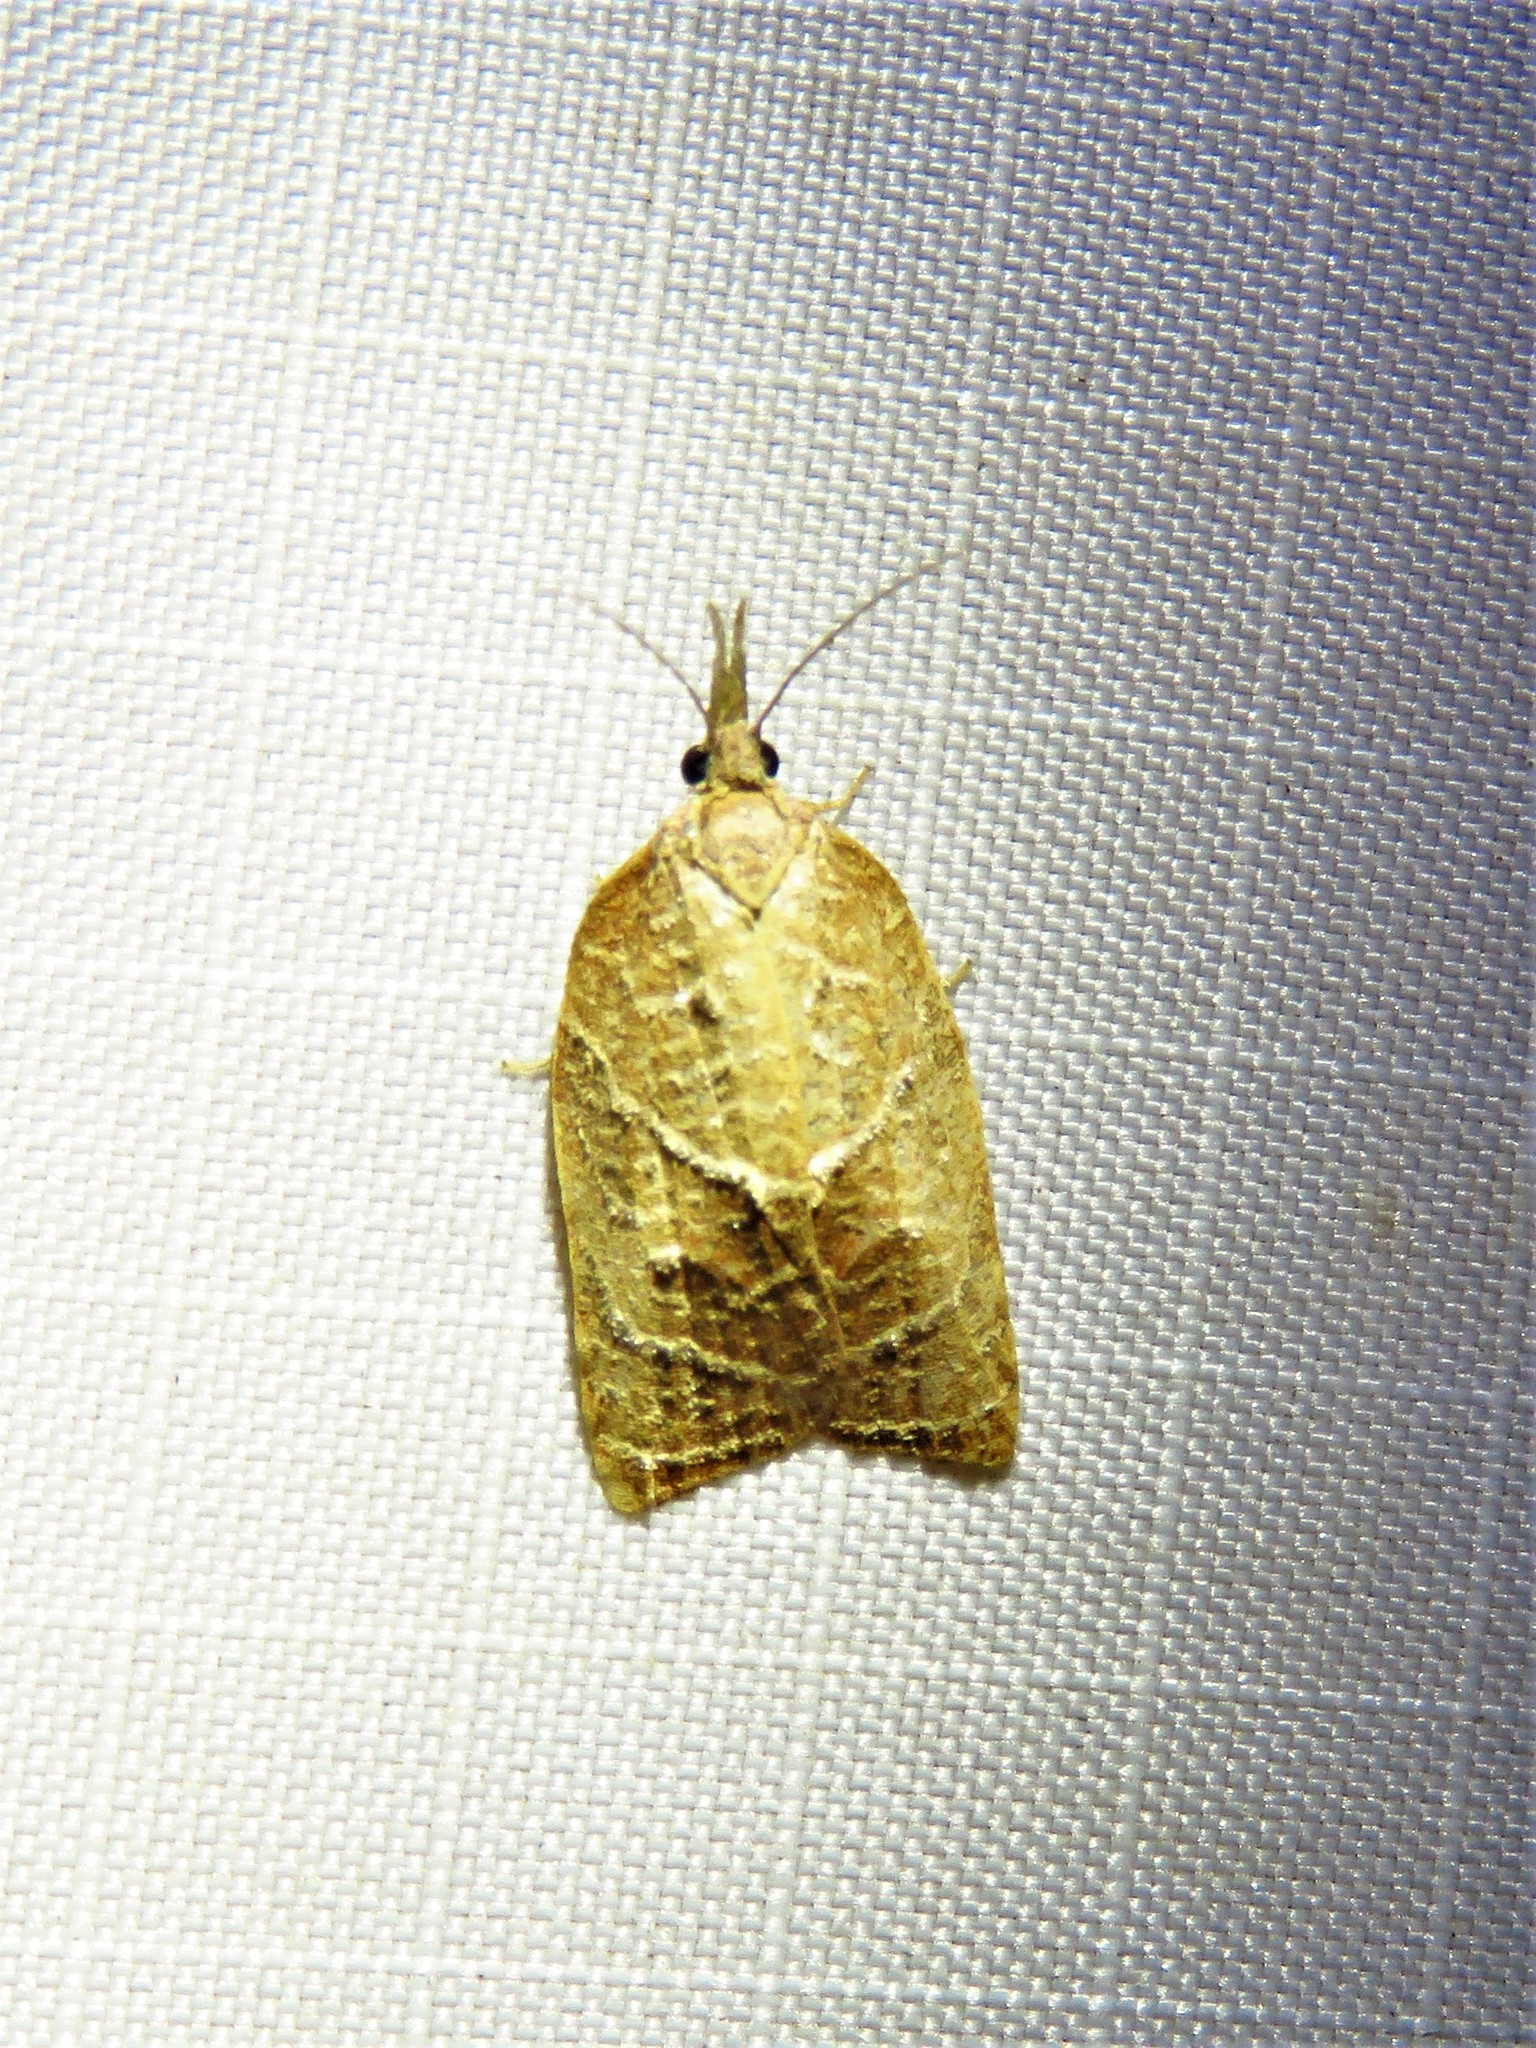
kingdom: Animalia
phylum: Arthropoda
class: Insecta
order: Lepidoptera
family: Tortricidae
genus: Platynota
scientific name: Platynota rostrana
